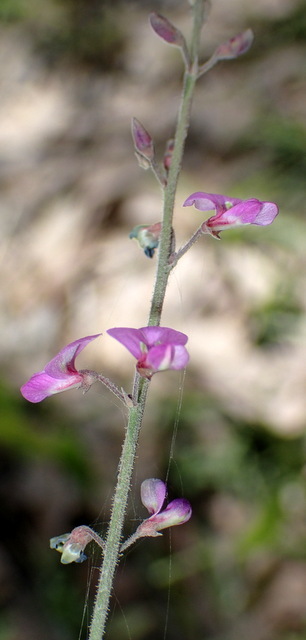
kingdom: Plantae
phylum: Tracheophyta
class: Magnoliopsida
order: Fabales
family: Fabaceae
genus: Desmodium
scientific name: Desmodium incanum
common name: Tickclover
